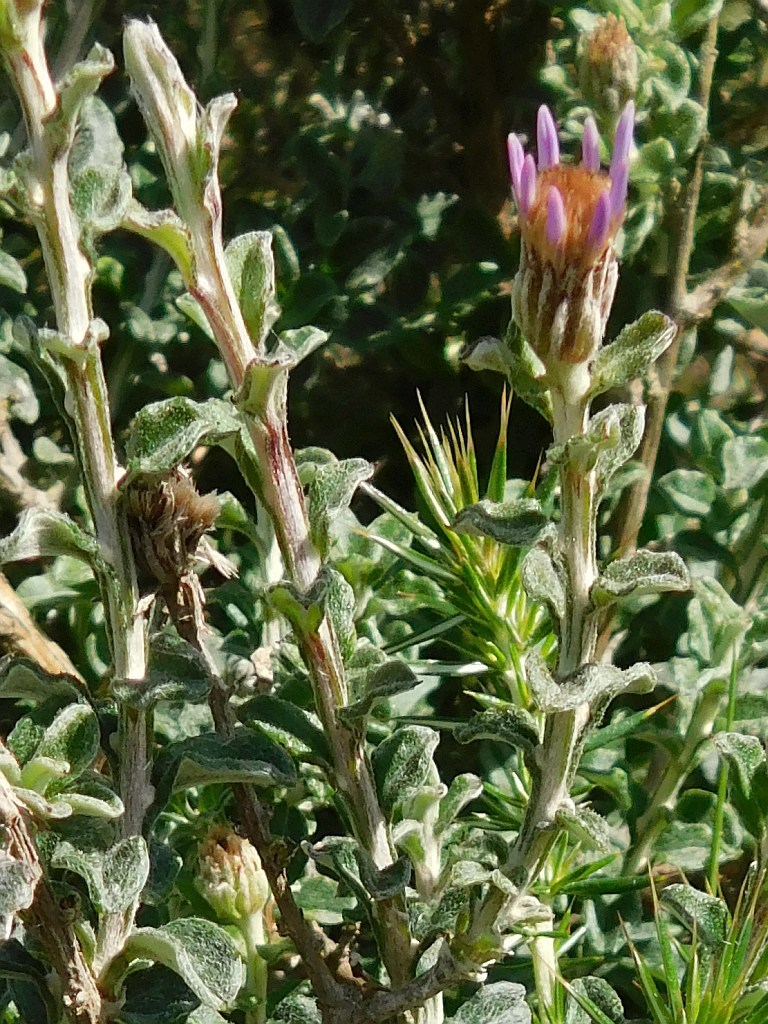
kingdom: Plantae
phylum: Tracheophyta
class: Magnoliopsida
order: Asterales
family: Asteraceae
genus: Printzia
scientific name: Printzia polifolia
